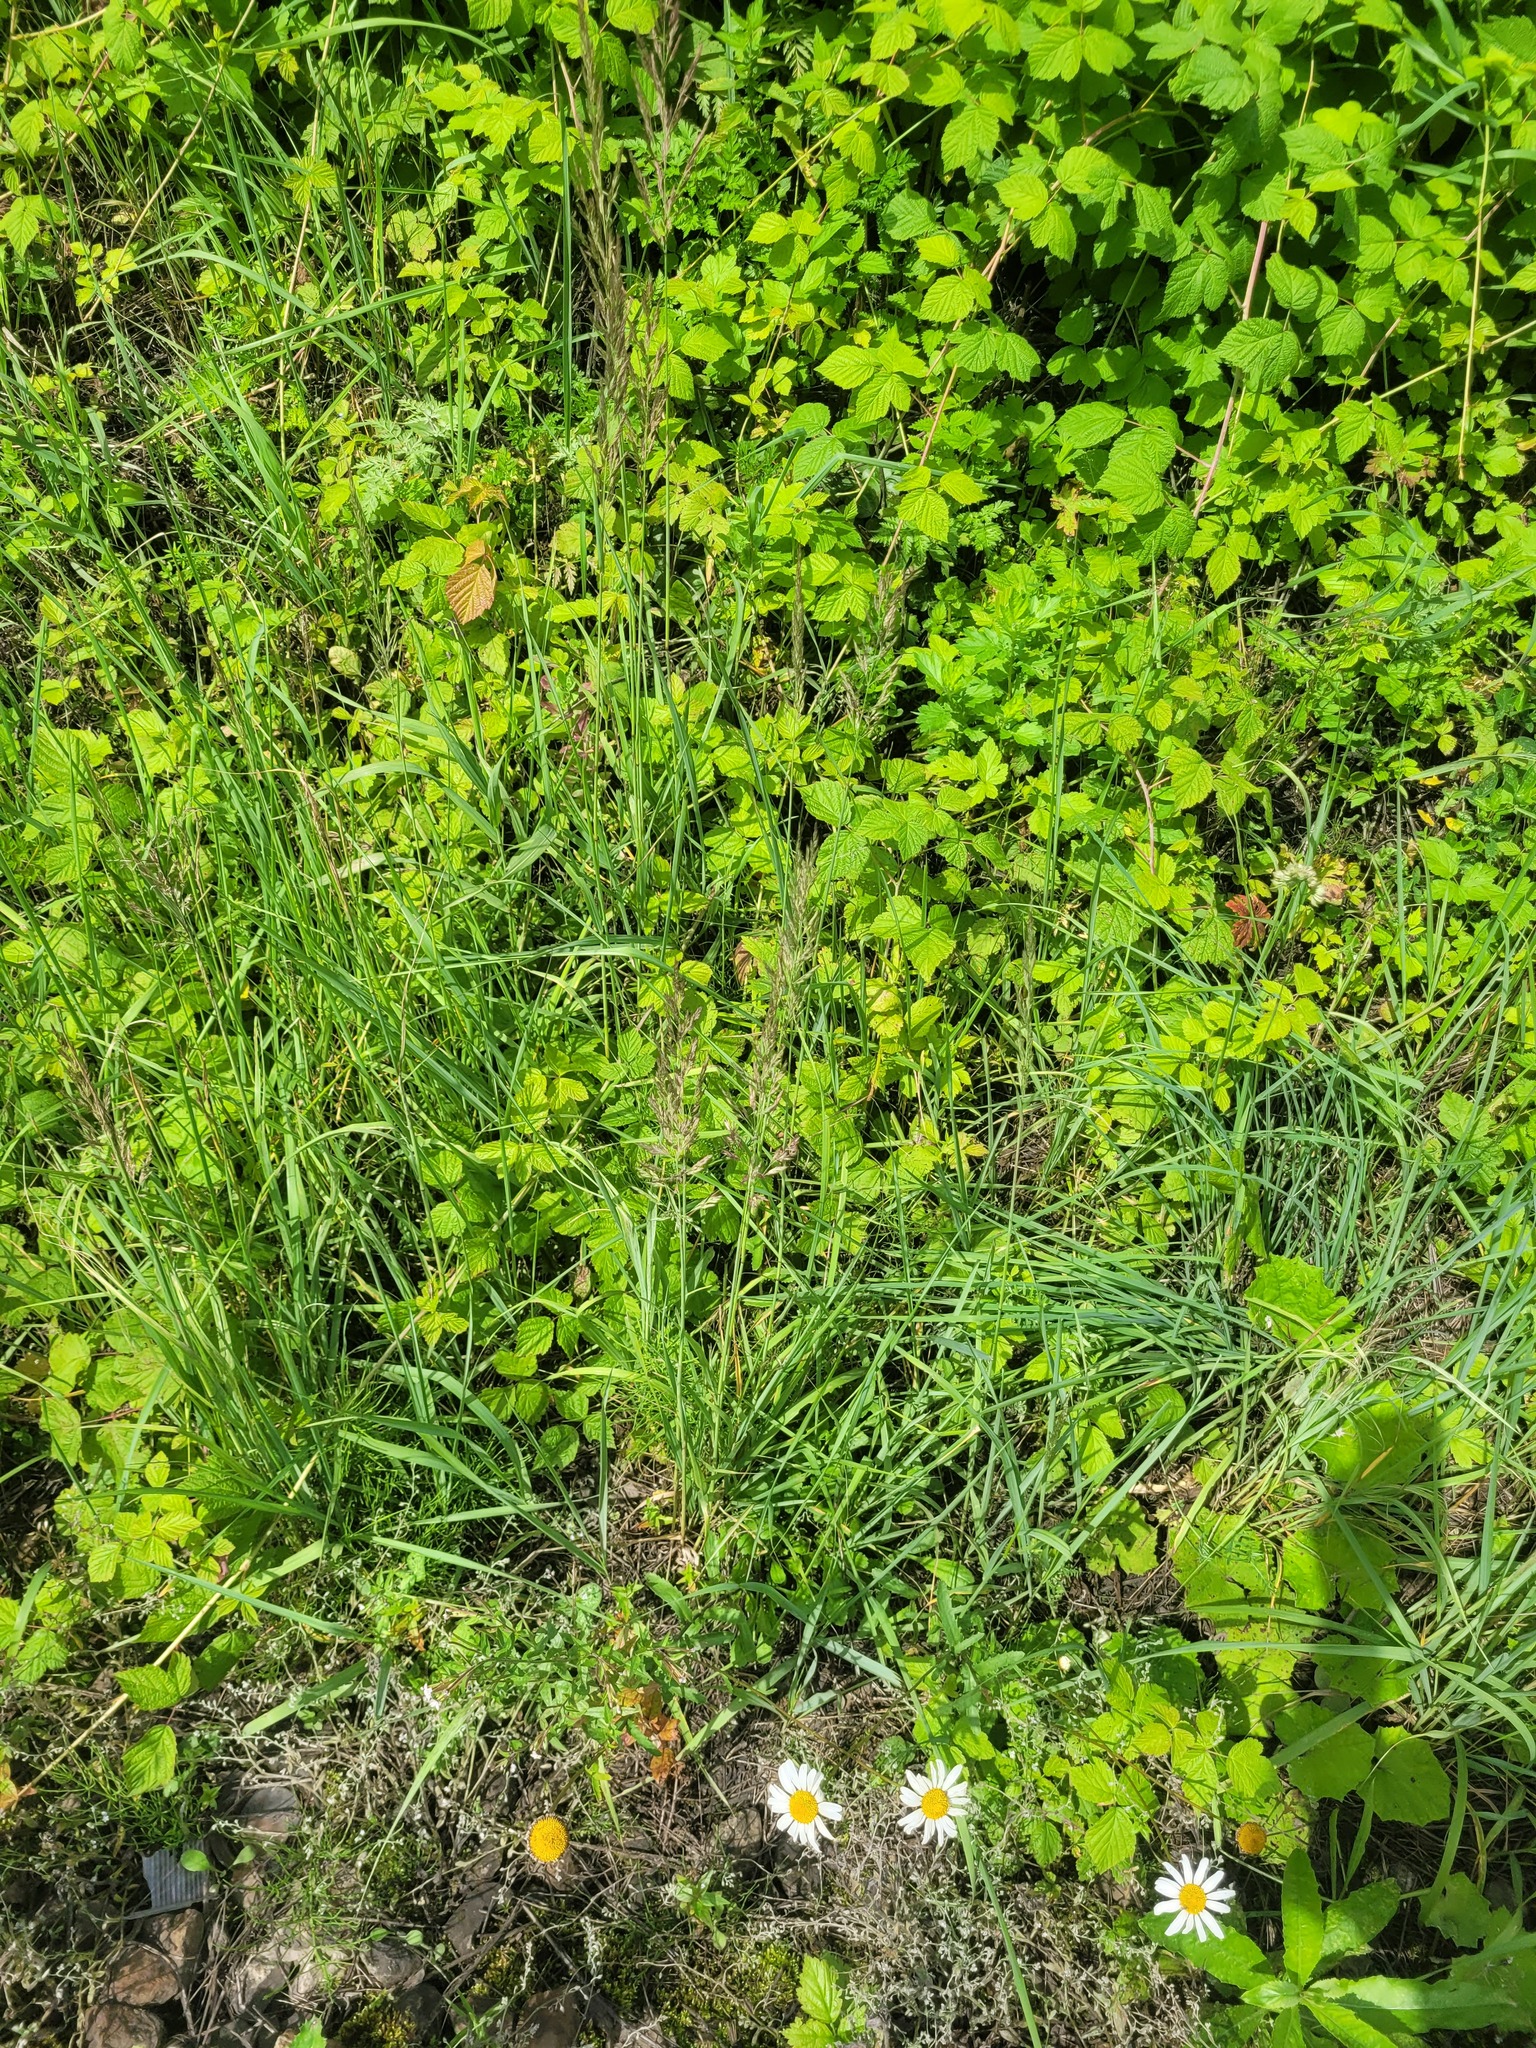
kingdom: Plantae
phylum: Tracheophyta
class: Liliopsida
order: Poales
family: Poaceae
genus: Calamagrostis
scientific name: Calamagrostis epigejos
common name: Wood small-reed
